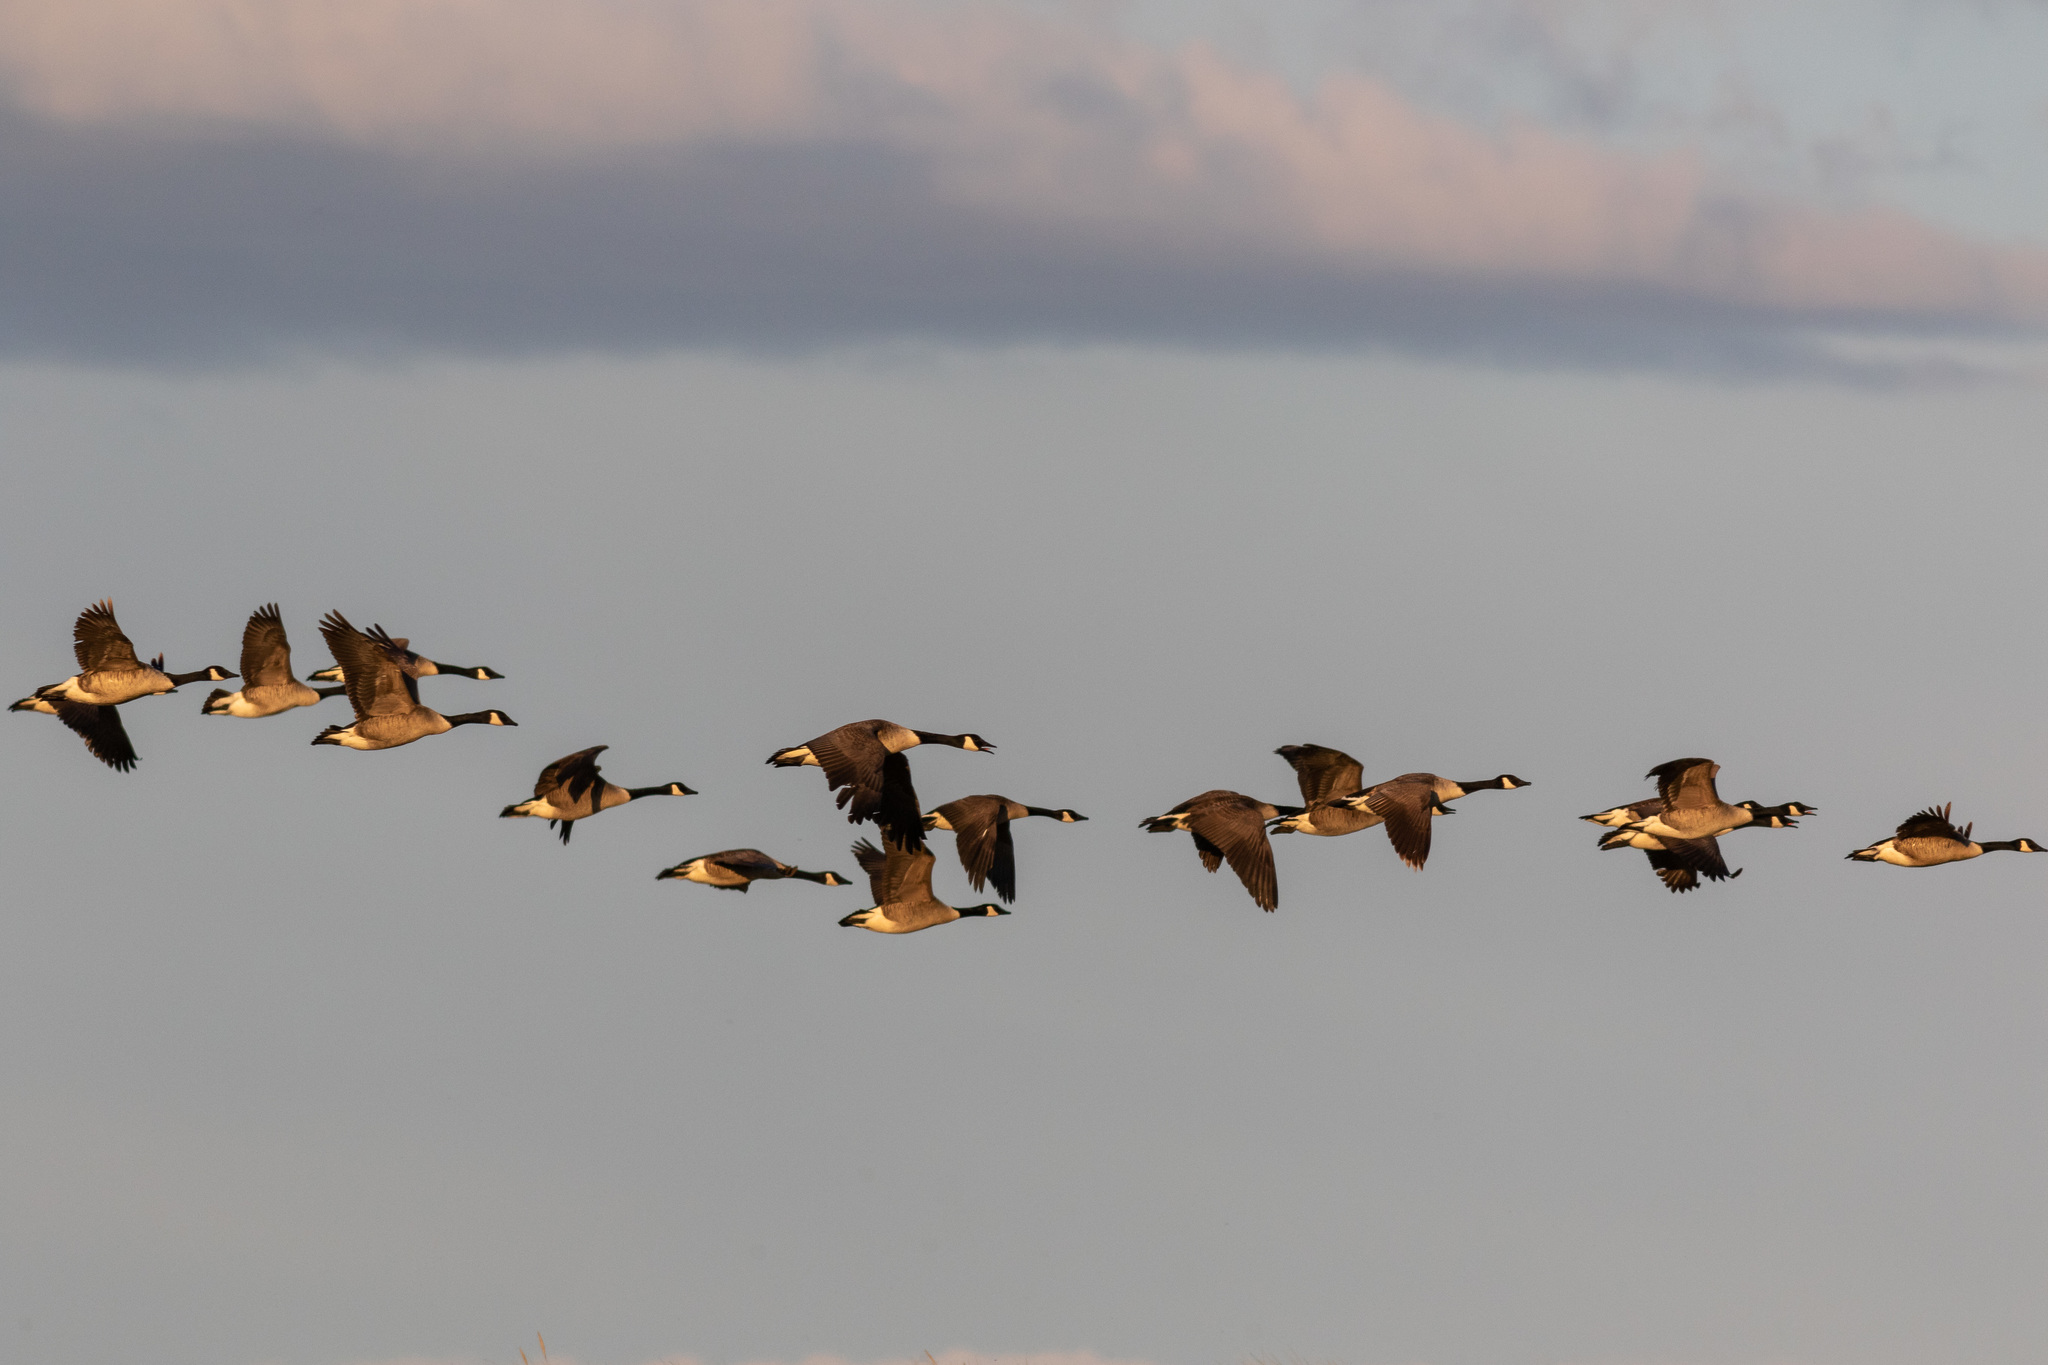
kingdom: Animalia
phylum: Chordata
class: Aves
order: Anseriformes
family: Anatidae
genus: Branta
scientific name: Branta canadensis
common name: Canada goose
